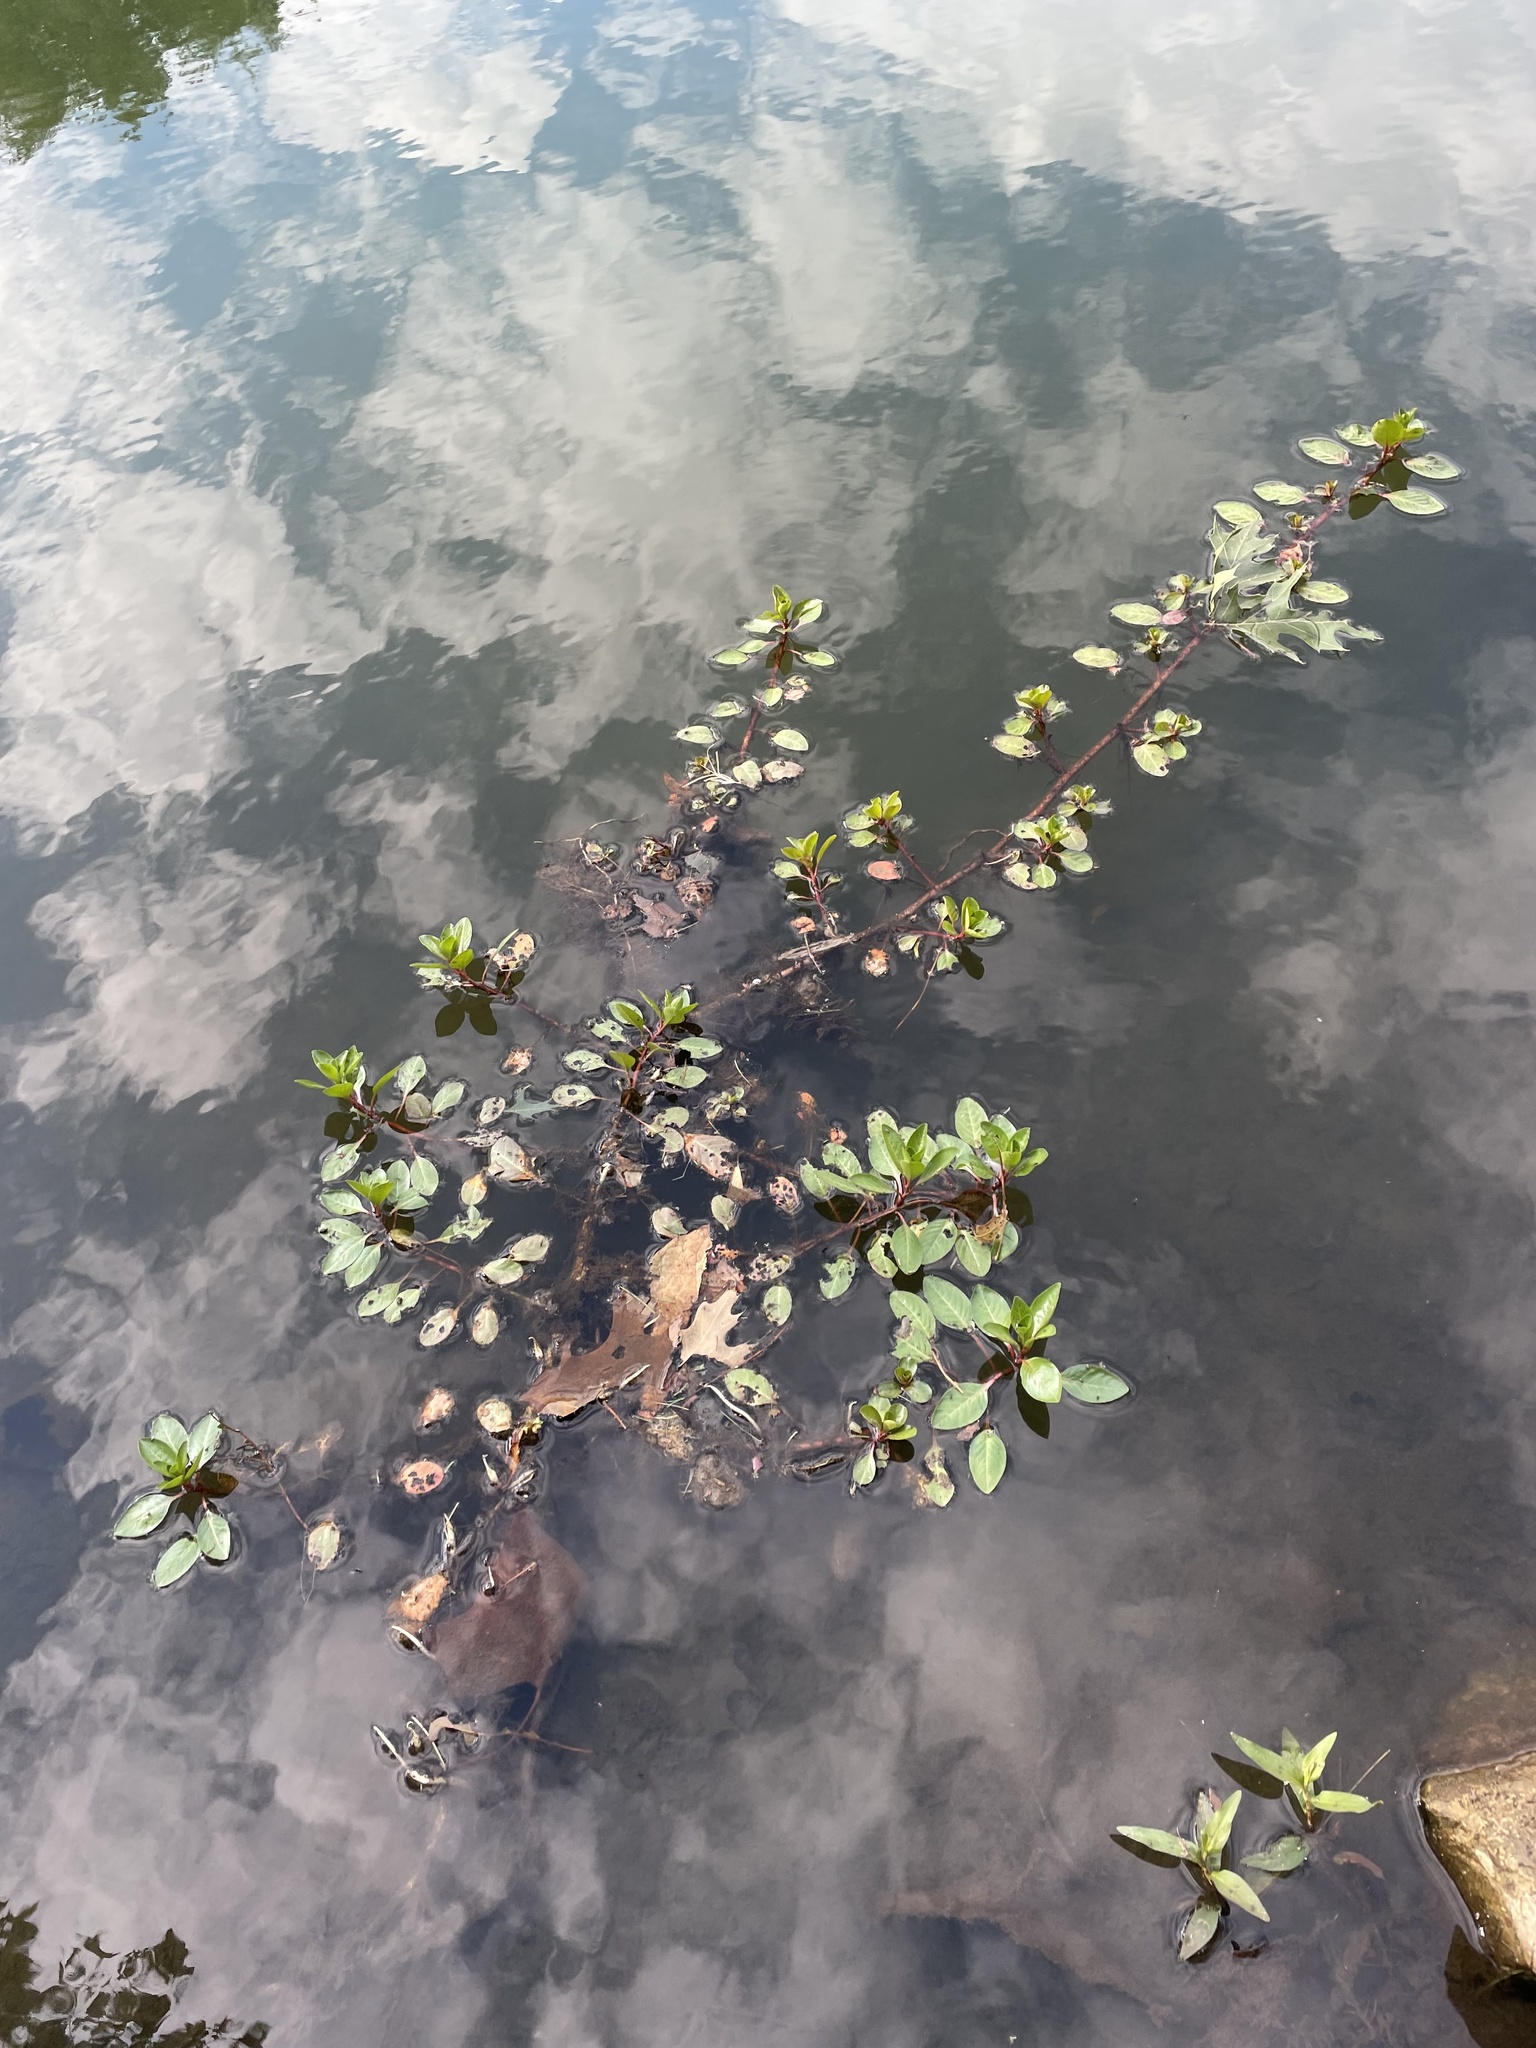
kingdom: Plantae
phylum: Tracheophyta
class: Magnoliopsida
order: Myrtales
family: Onagraceae
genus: Ludwigia
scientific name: Ludwigia peploides
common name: Floating primrose-willow
